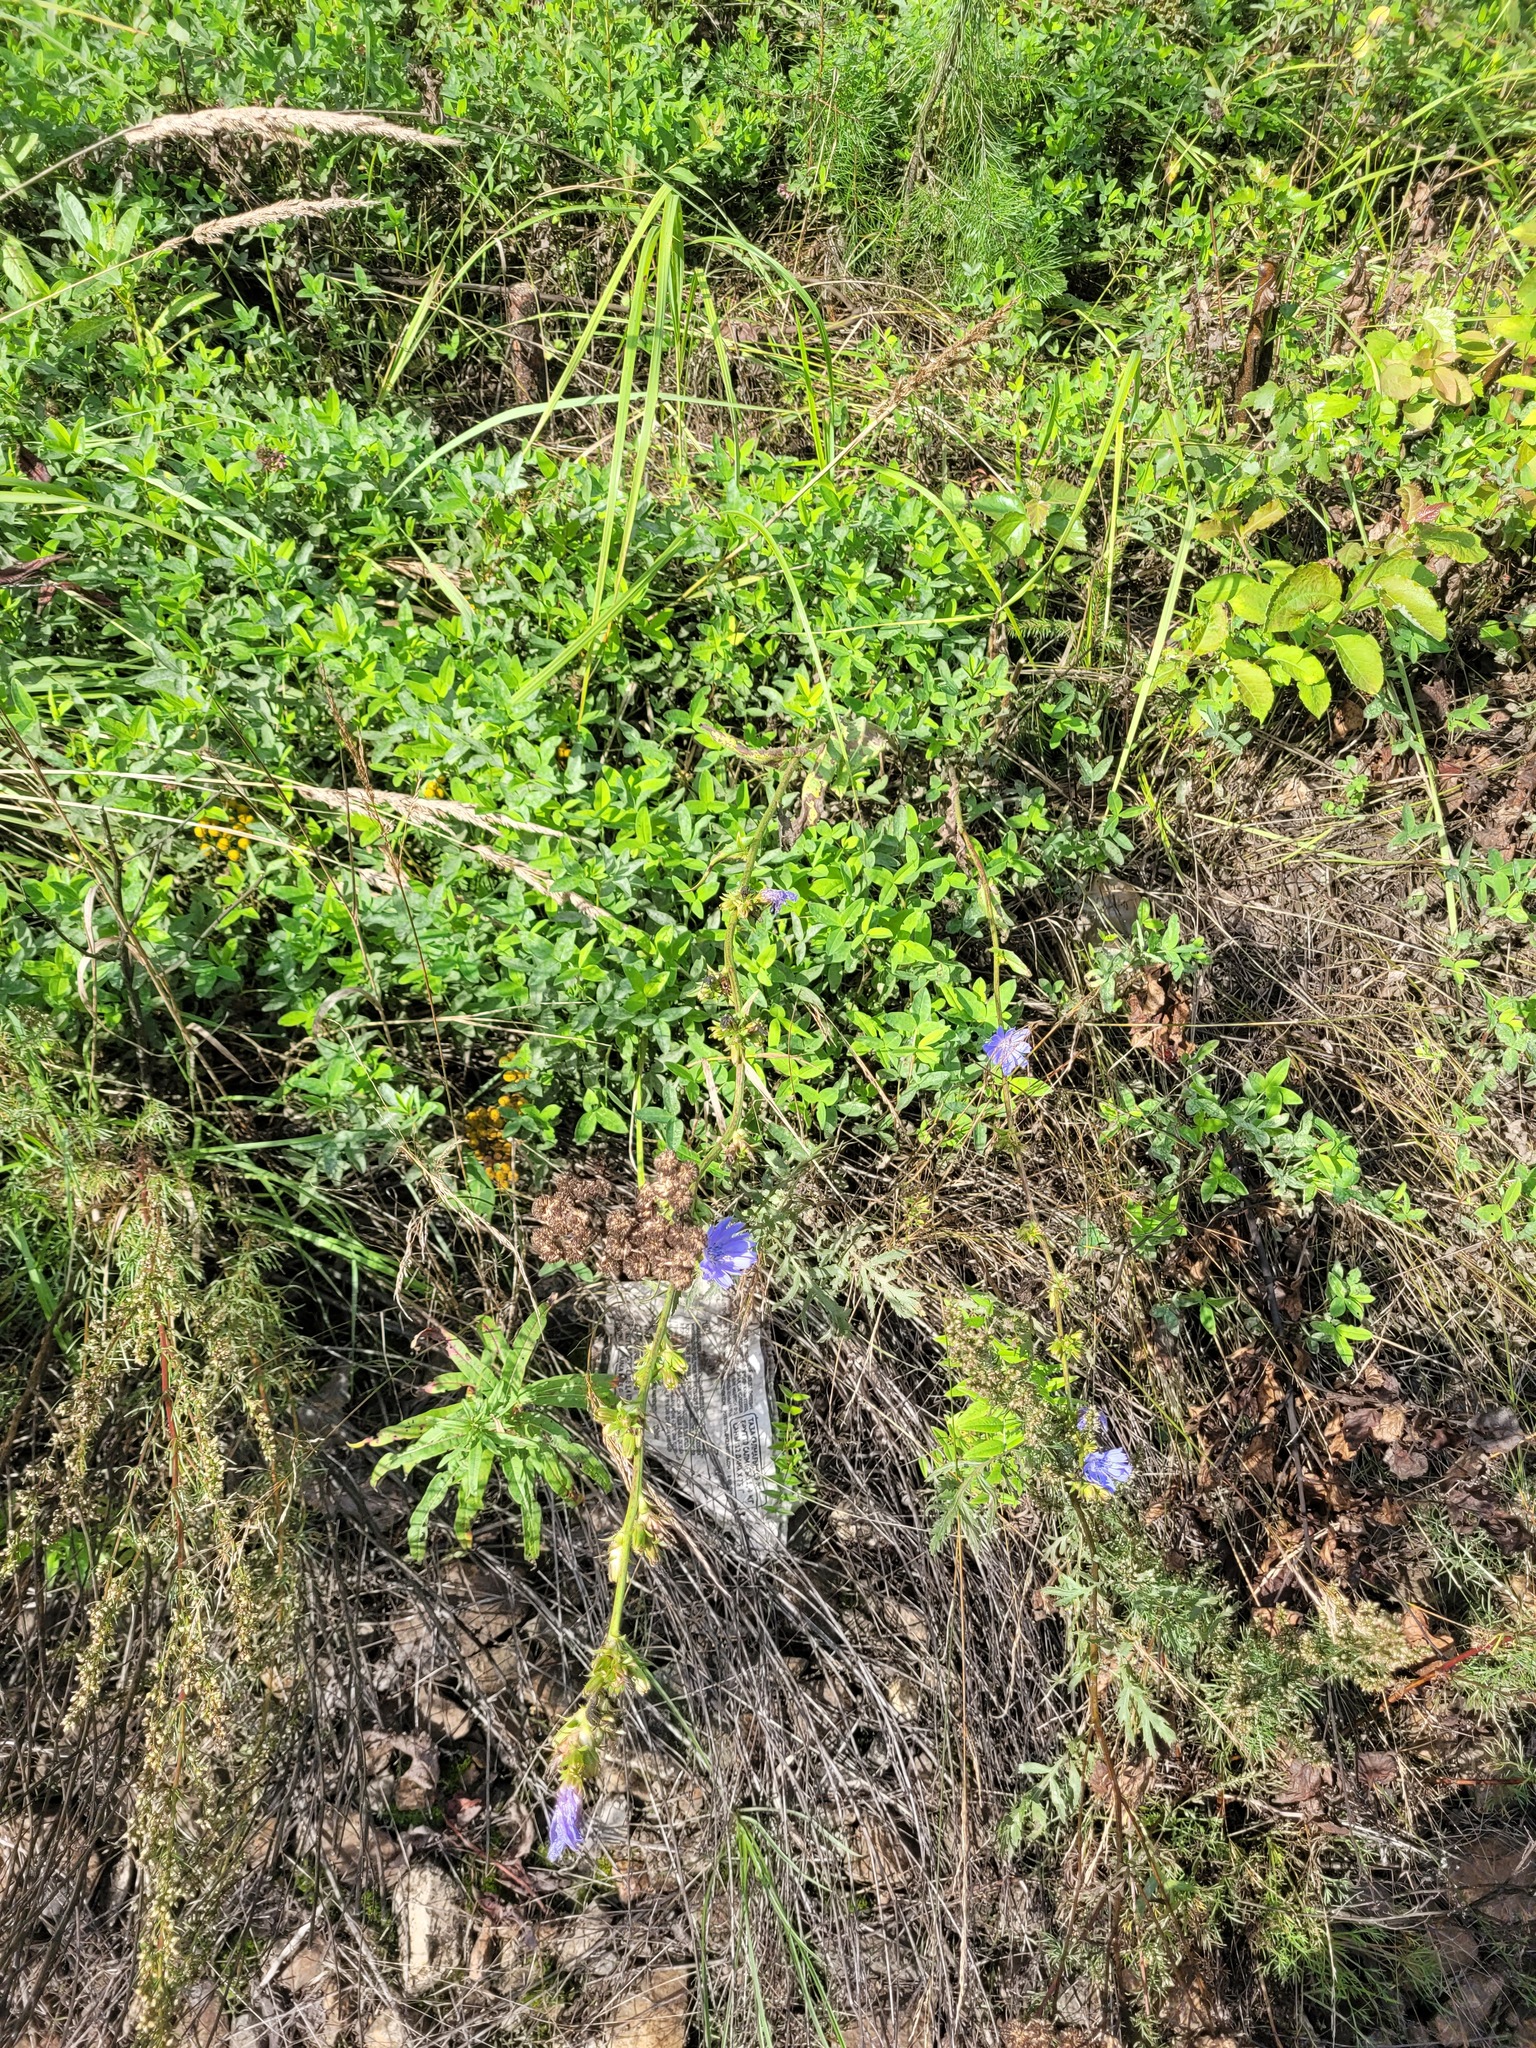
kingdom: Plantae
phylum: Tracheophyta
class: Magnoliopsida
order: Asterales
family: Asteraceae
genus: Cichorium
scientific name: Cichorium intybus
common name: Chicory
